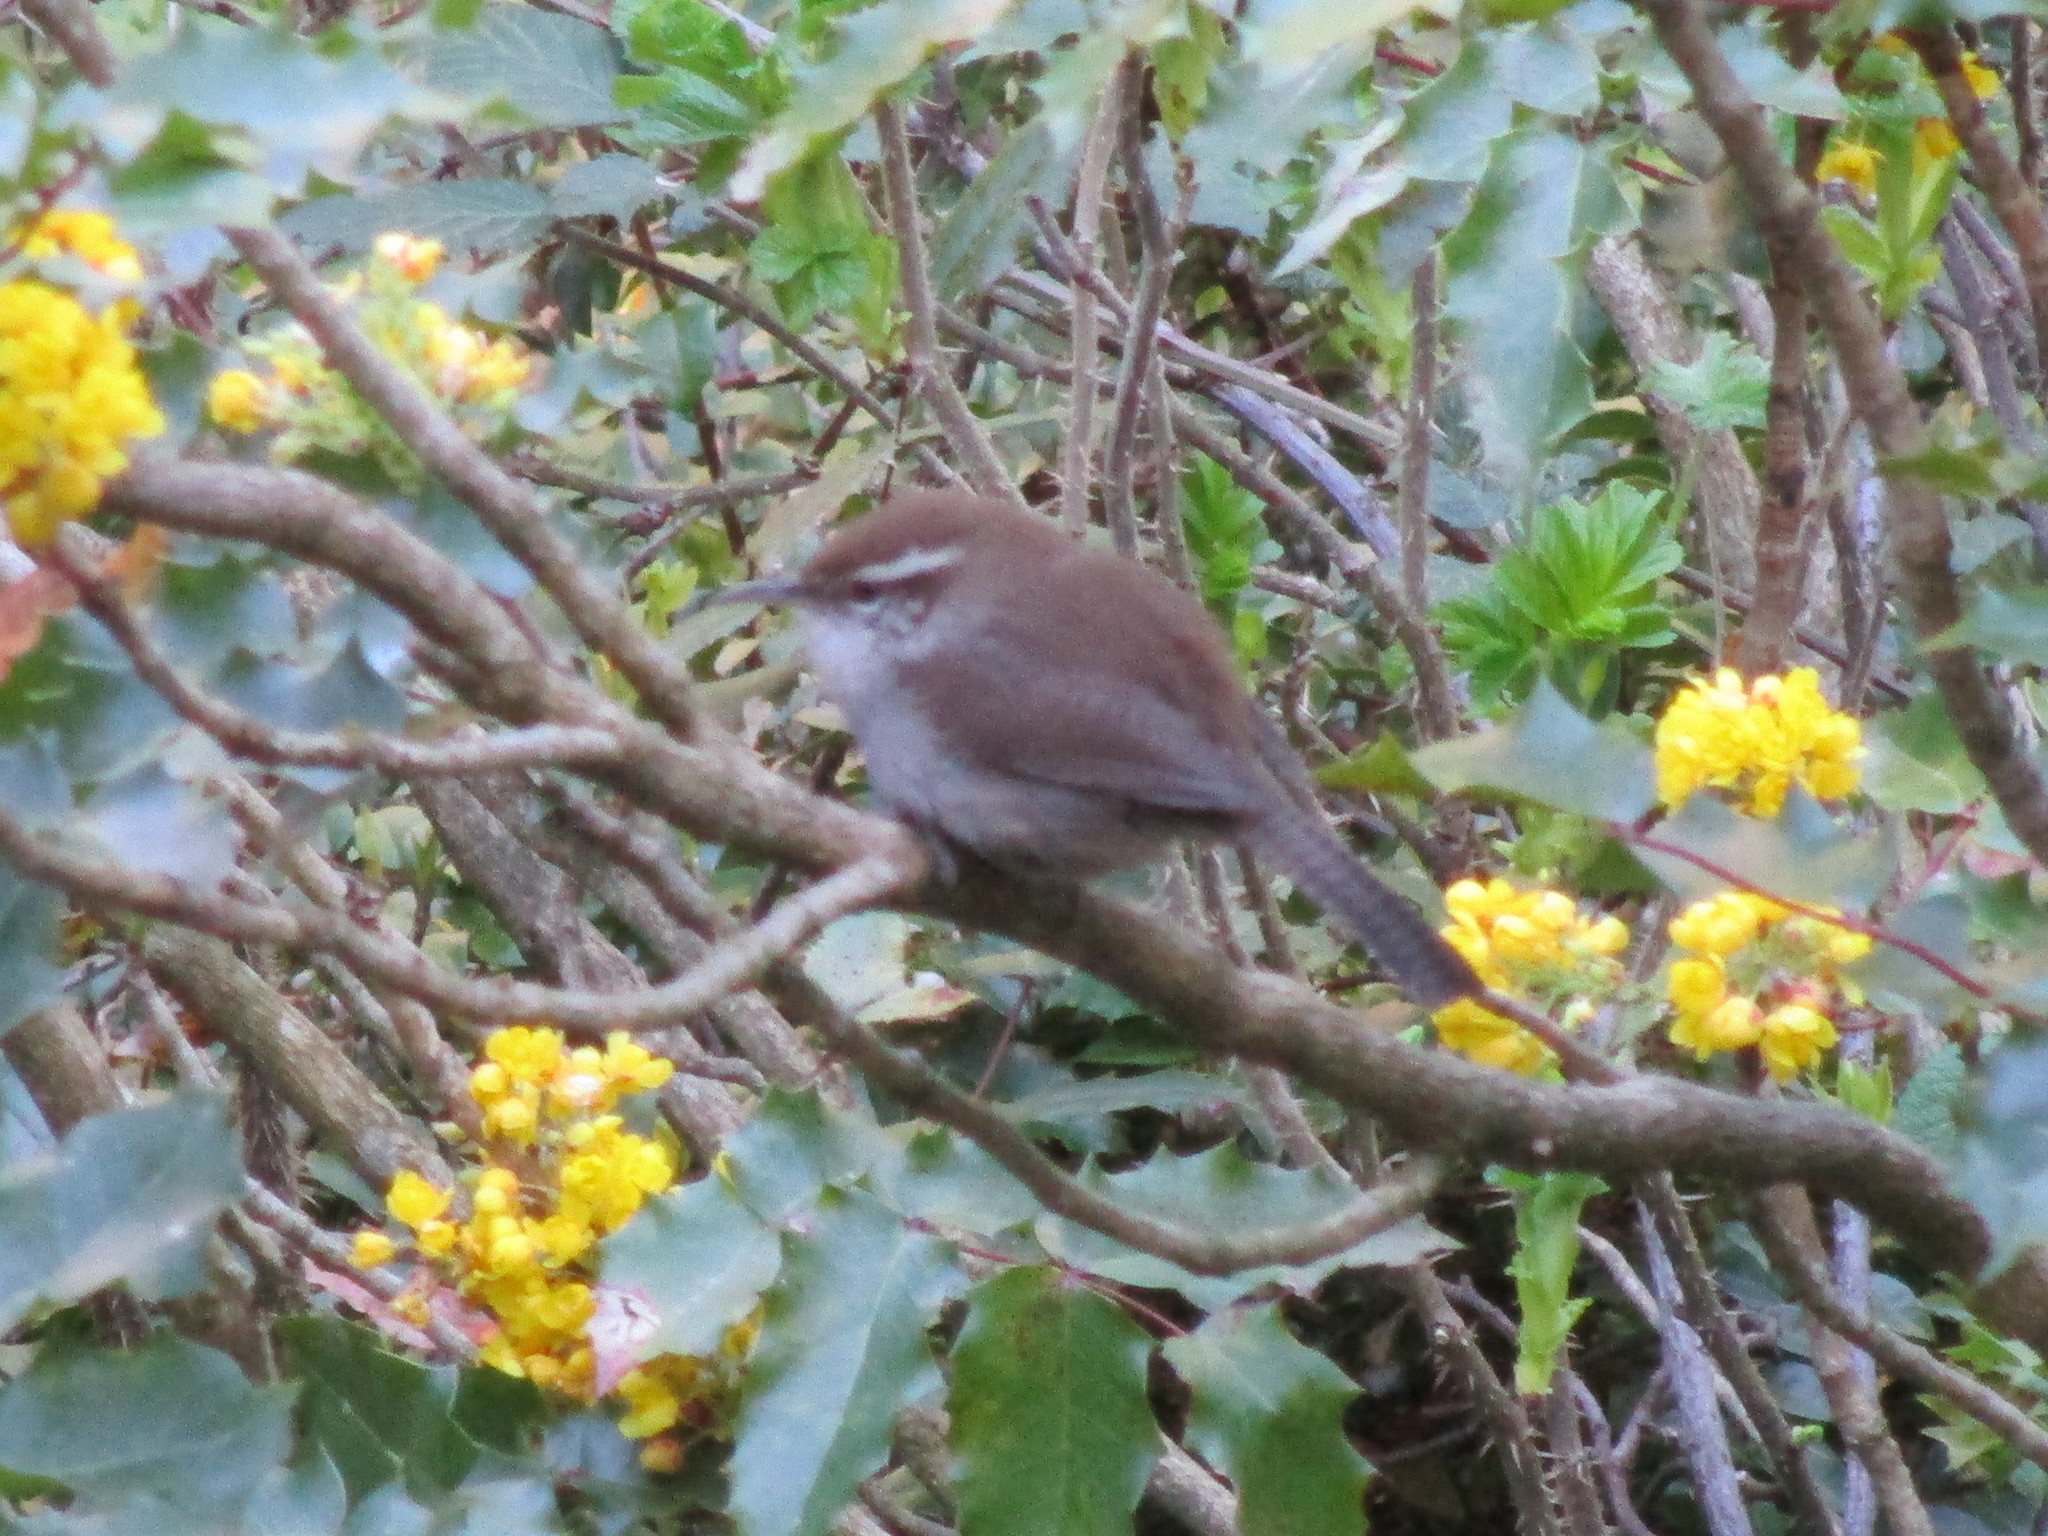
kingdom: Animalia
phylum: Chordata
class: Aves
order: Passeriformes
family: Troglodytidae
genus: Thryomanes
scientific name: Thryomanes bewickii
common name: Bewick's wren
